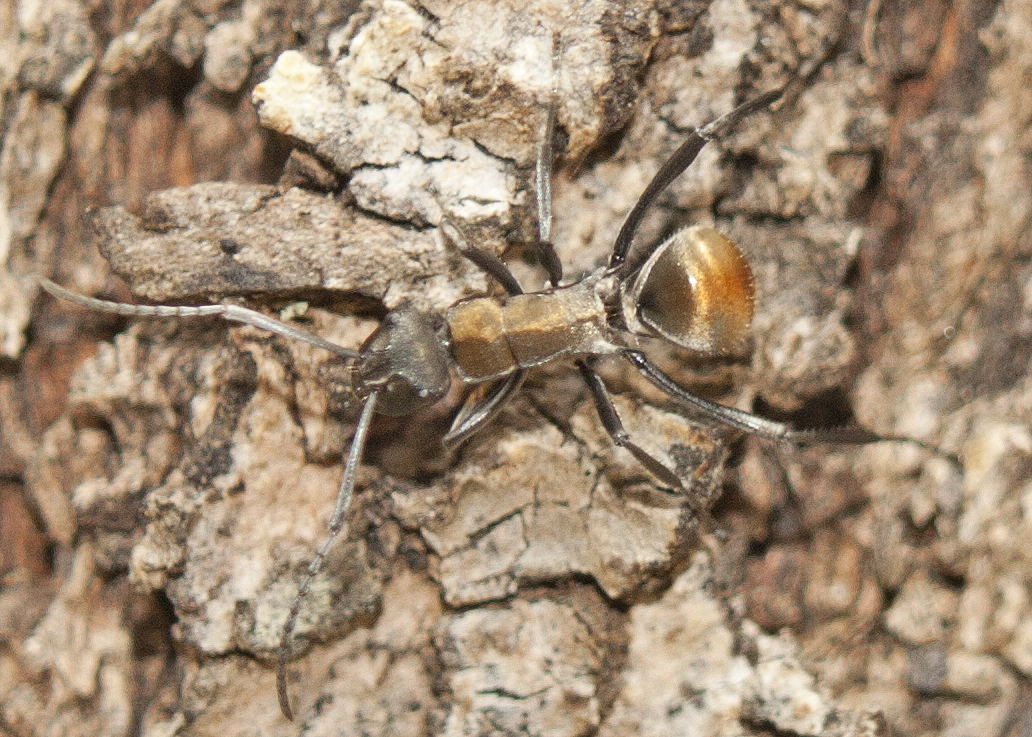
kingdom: Animalia
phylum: Arthropoda
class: Insecta
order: Hymenoptera
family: Formicidae
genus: Polyrhachis
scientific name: Polyrhachis ammon
